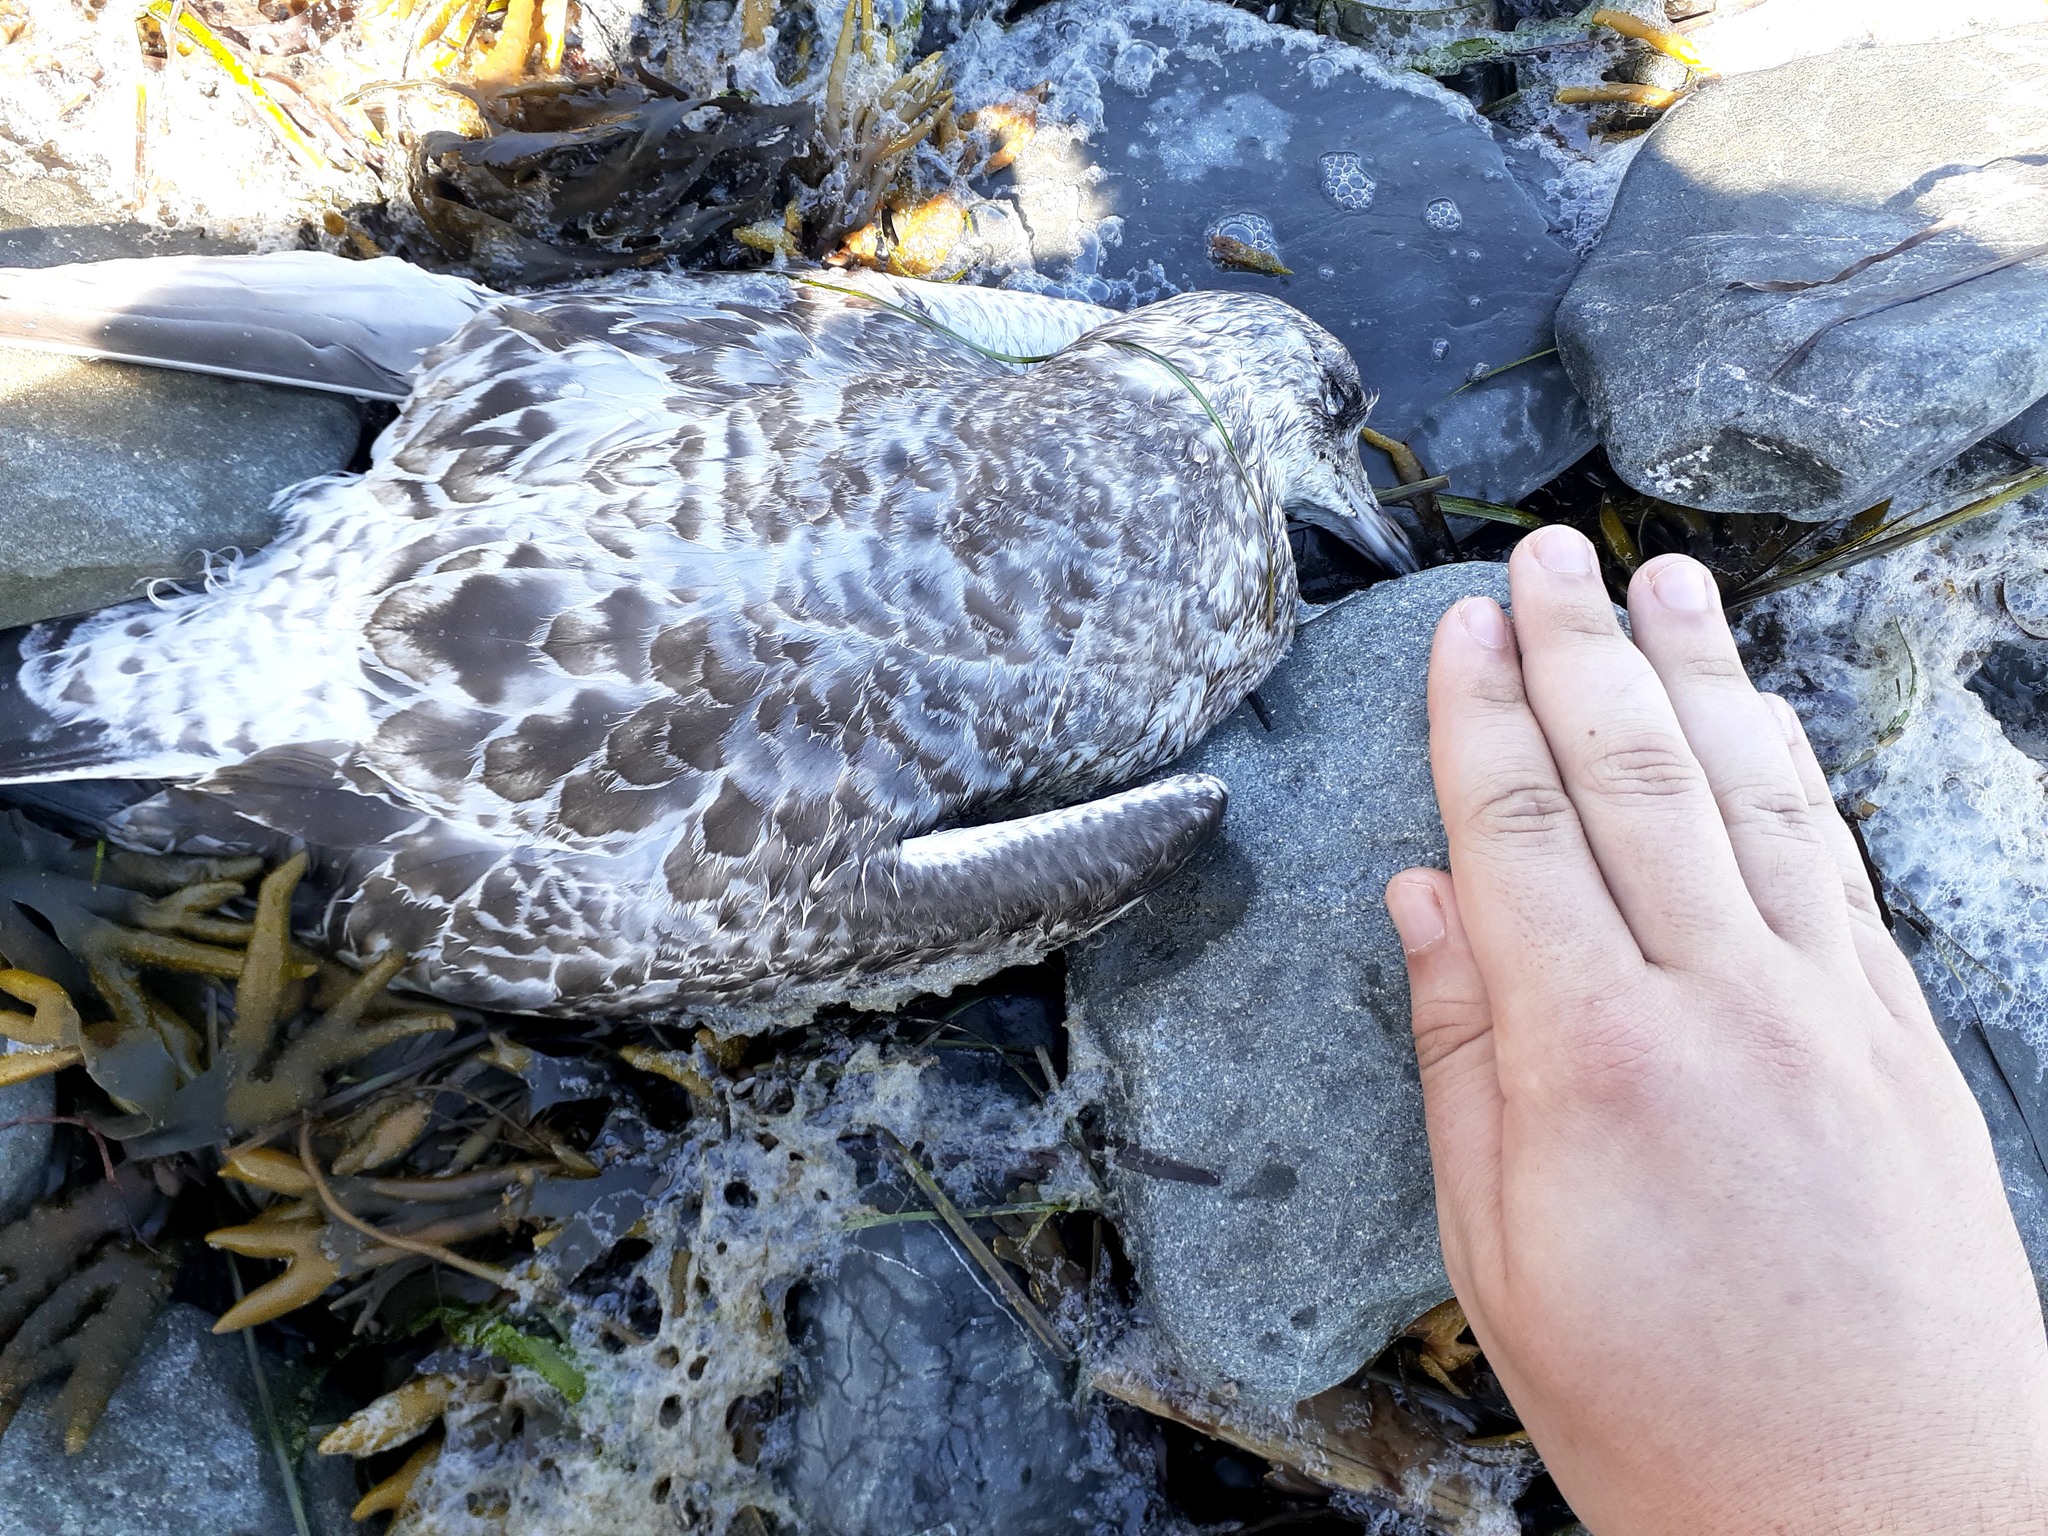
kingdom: Animalia
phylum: Chordata
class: Aves
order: Charadriiformes
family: Laridae
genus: Larus
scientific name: Larus delawarensis
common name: Ring-billed gull
